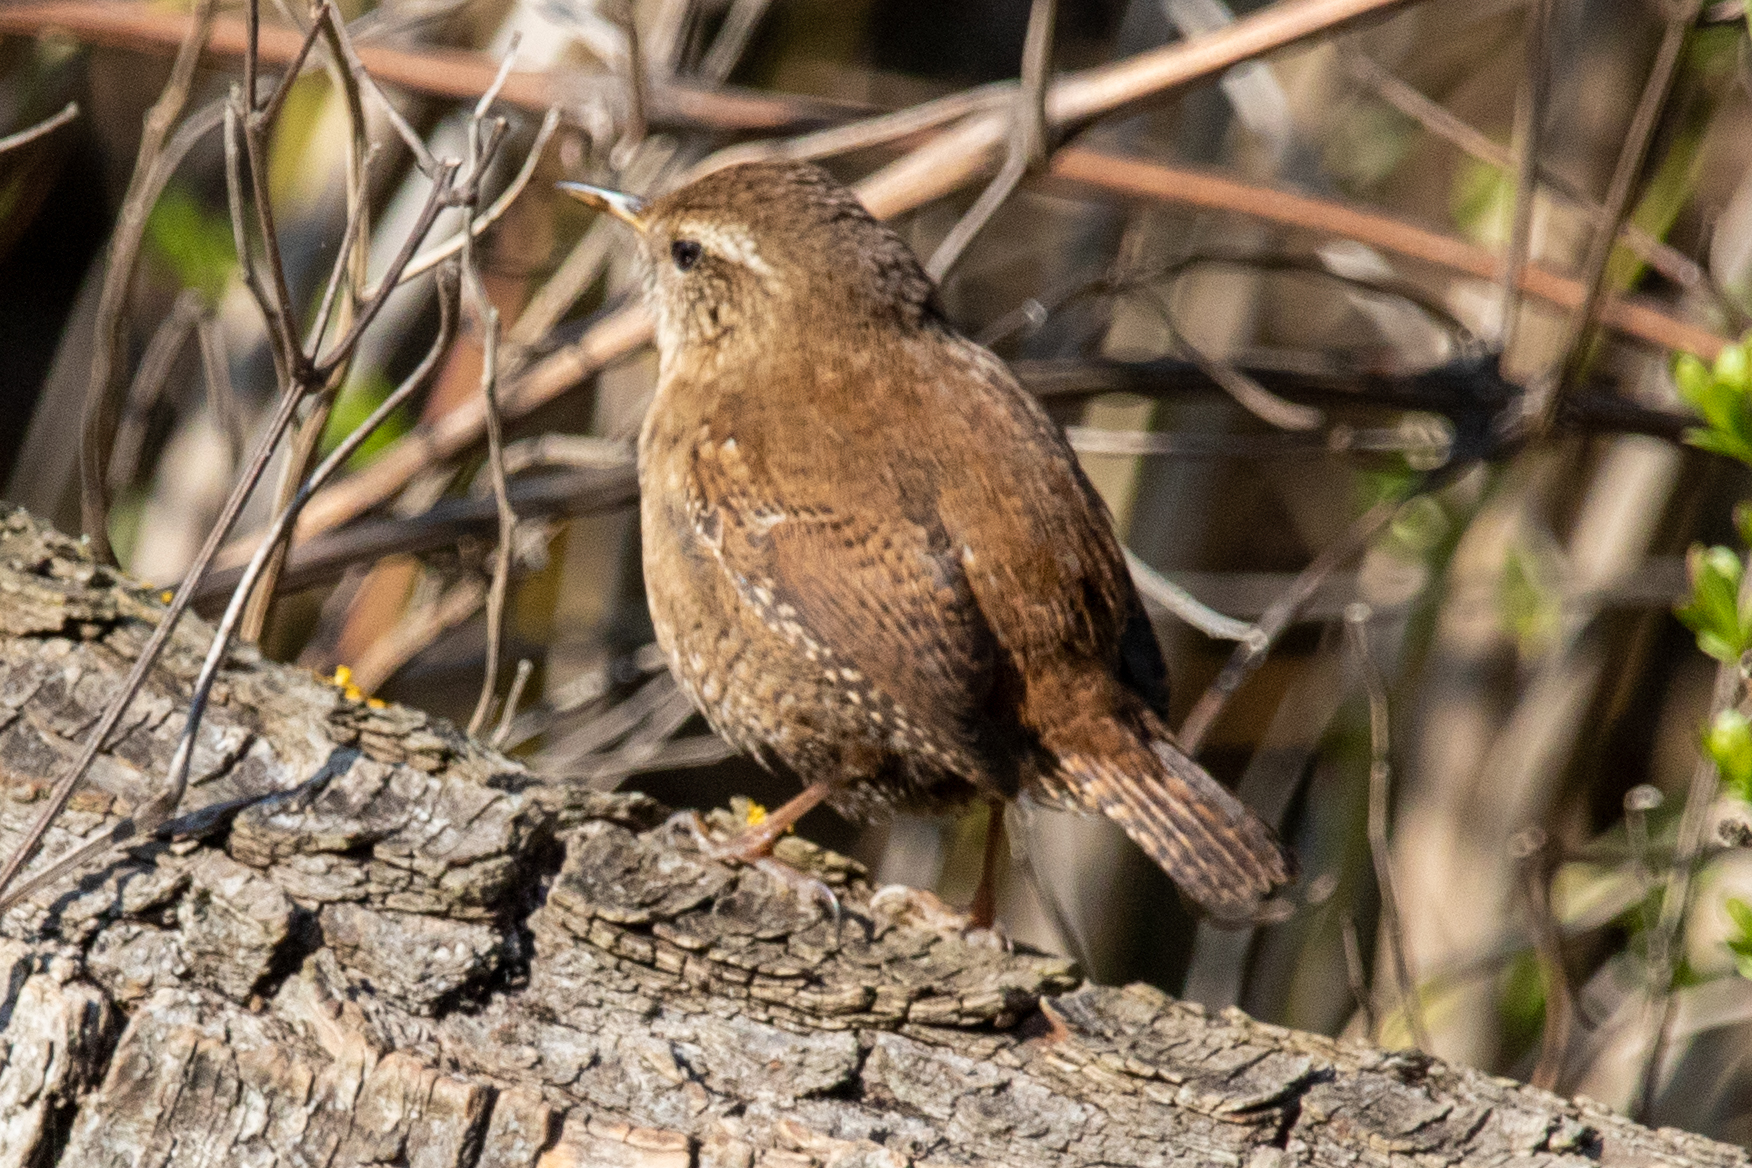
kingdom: Animalia
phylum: Chordata
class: Aves
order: Passeriformes
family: Troglodytidae
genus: Troglodytes
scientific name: Troglodytes troglodytes
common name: Eurasian wren
